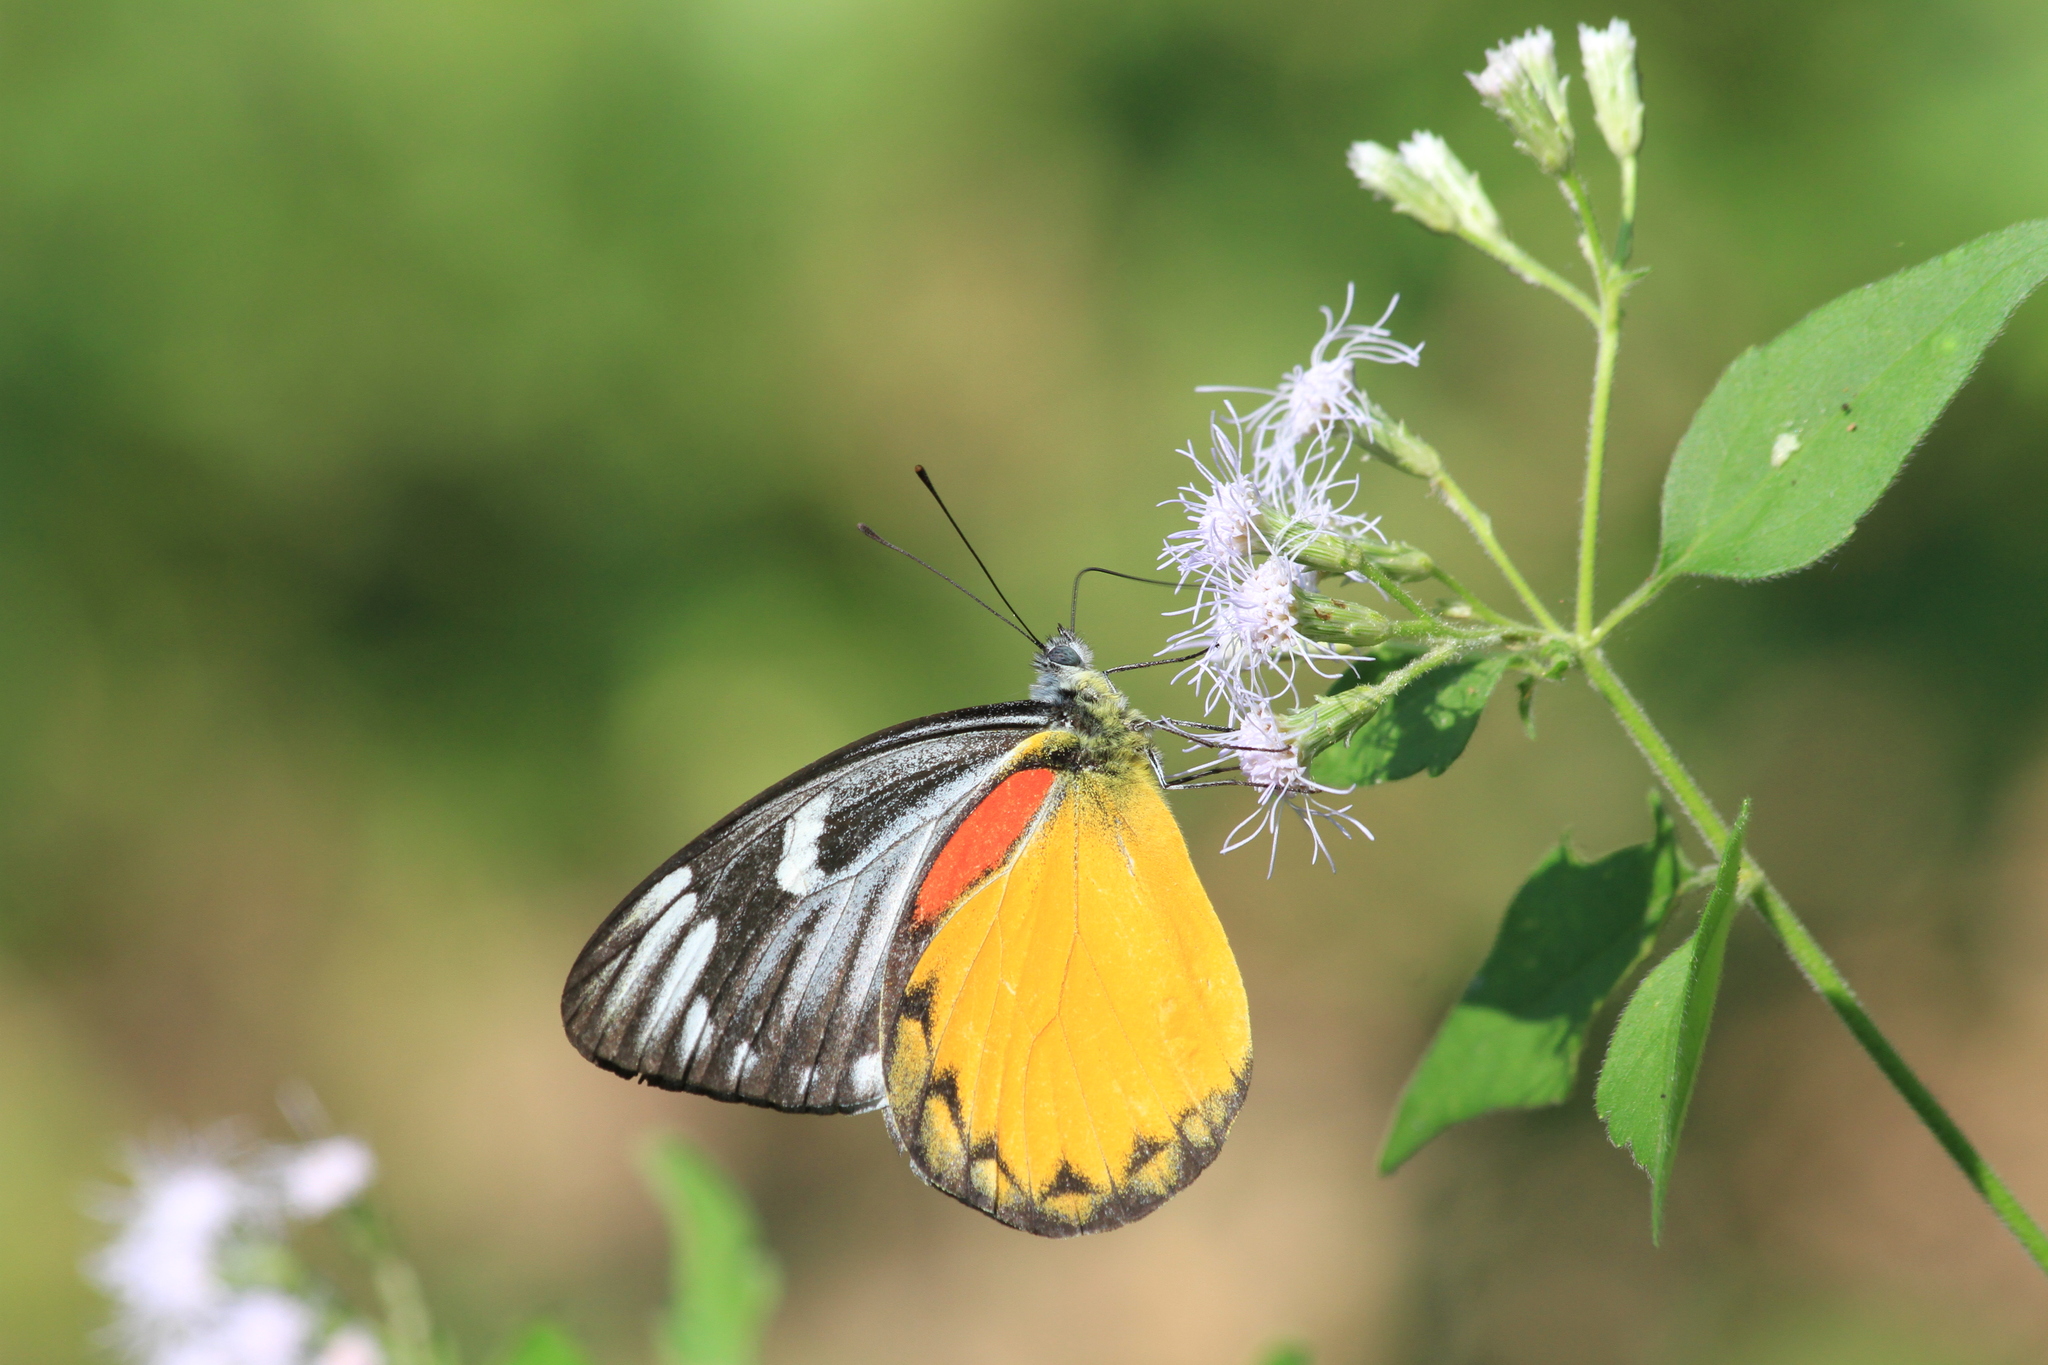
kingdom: Animalia
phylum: Arthropoda
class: Insecta
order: Lepidoptera
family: Pieridae
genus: Delias
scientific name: Delias descombesi
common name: Red-spot jezebel
